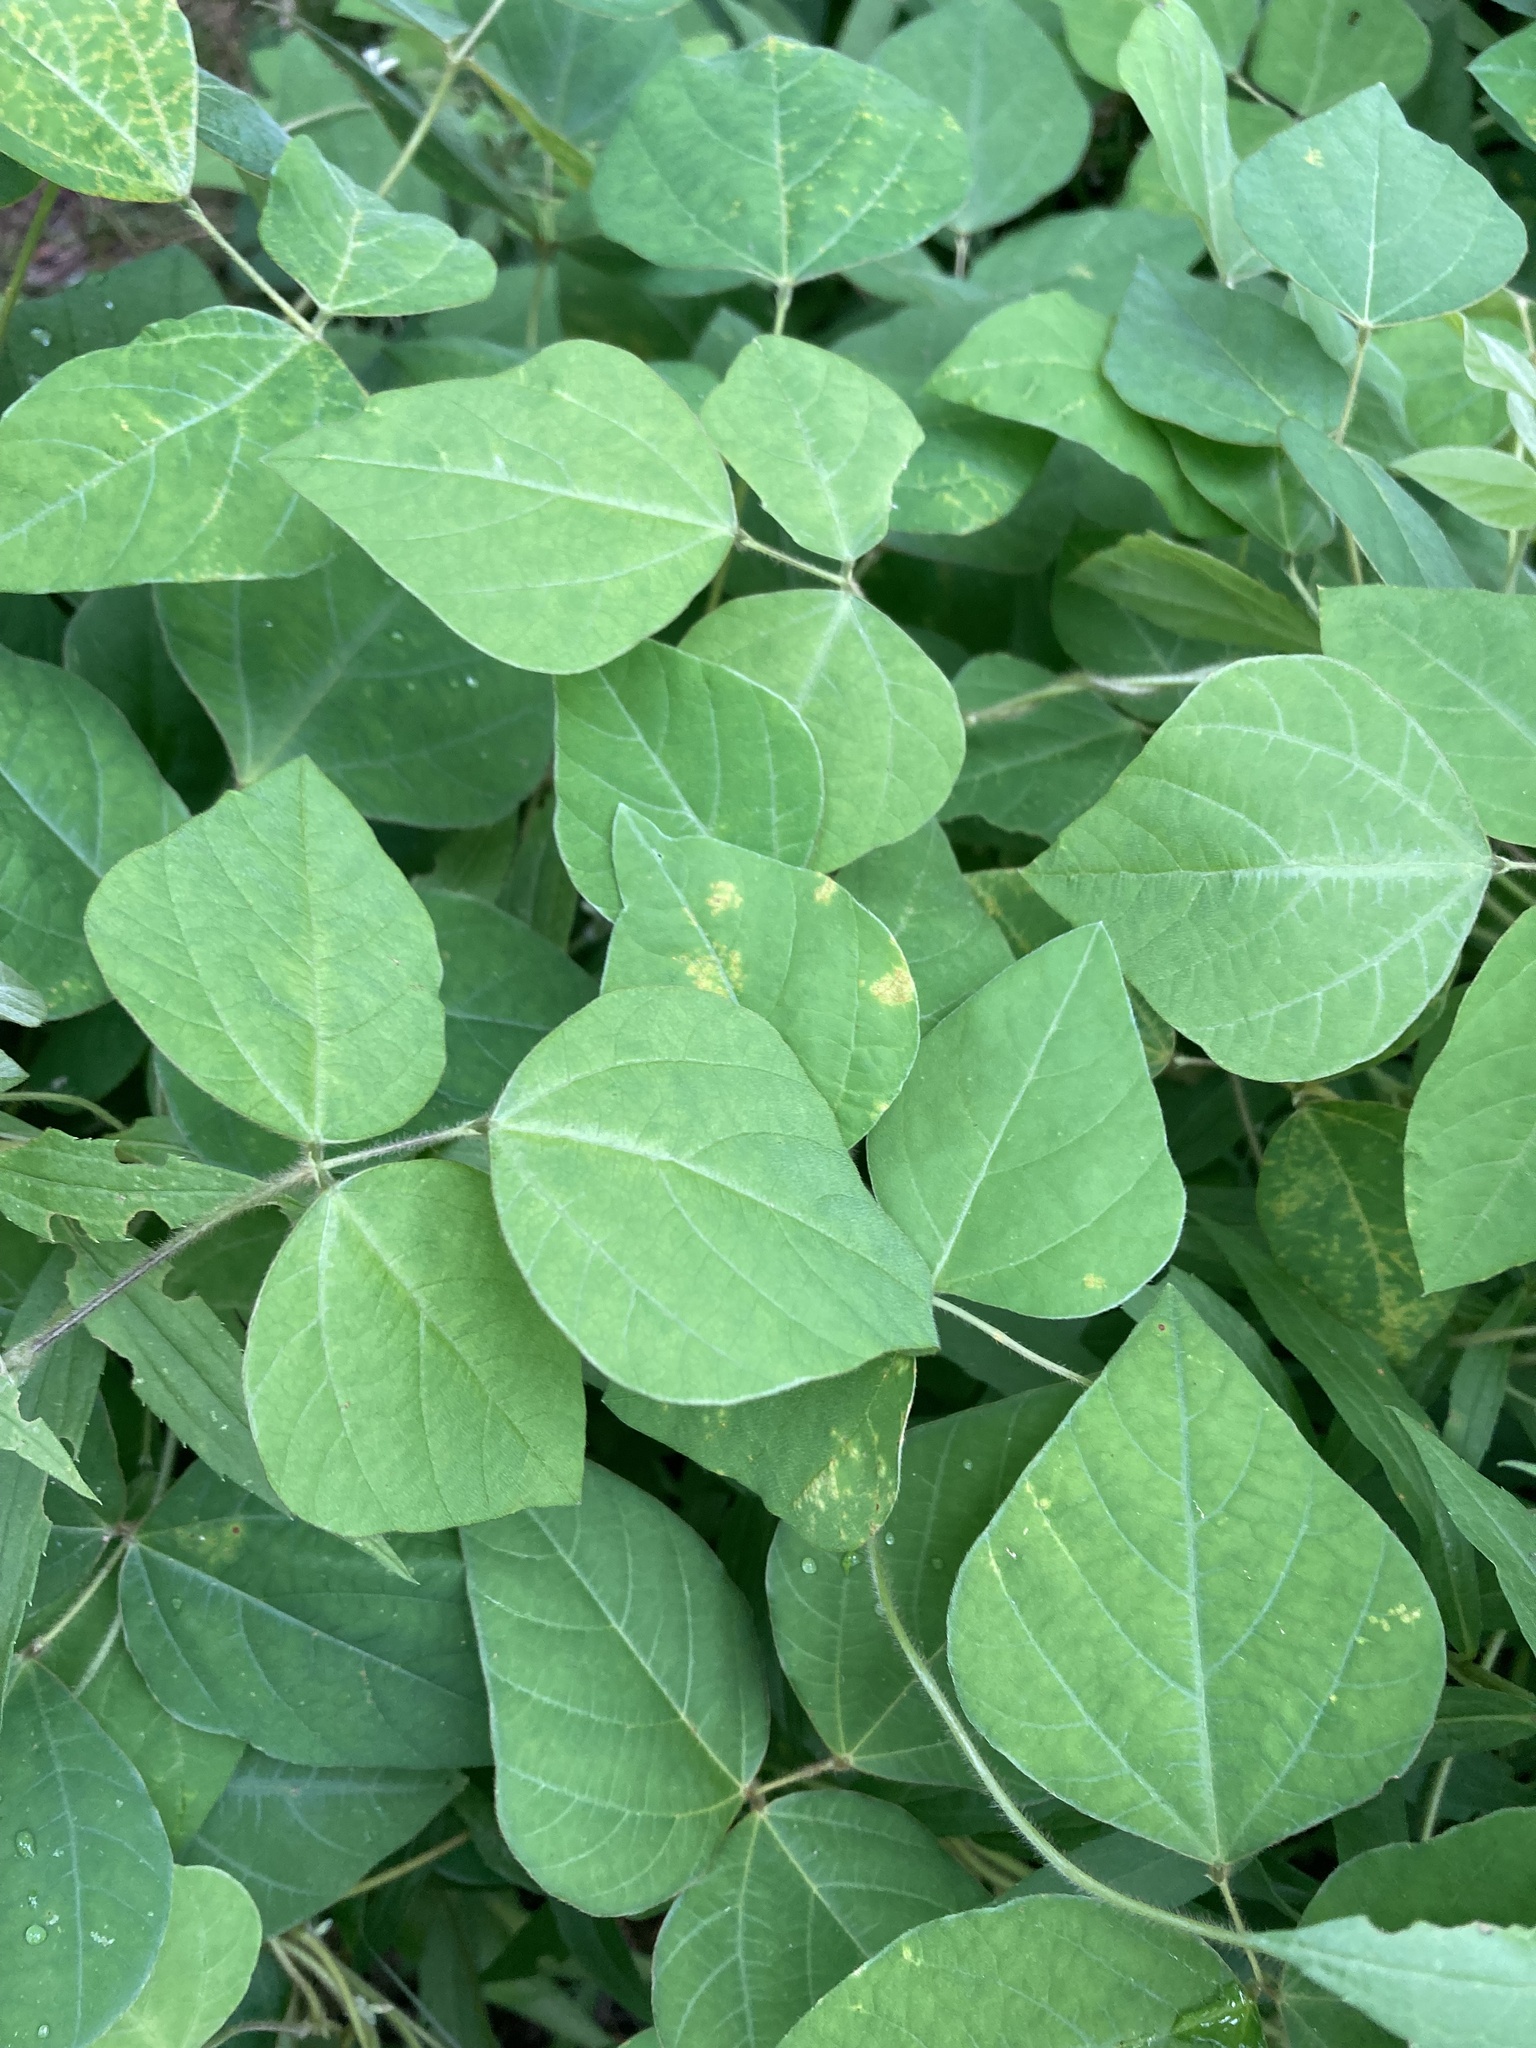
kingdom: Plantae
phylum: Tracheophyta
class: Magnoliopsida
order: Fabales
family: Fabaceae
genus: Amphicarpaea
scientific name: Amphicarpaea bracteata
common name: American hog peanut
